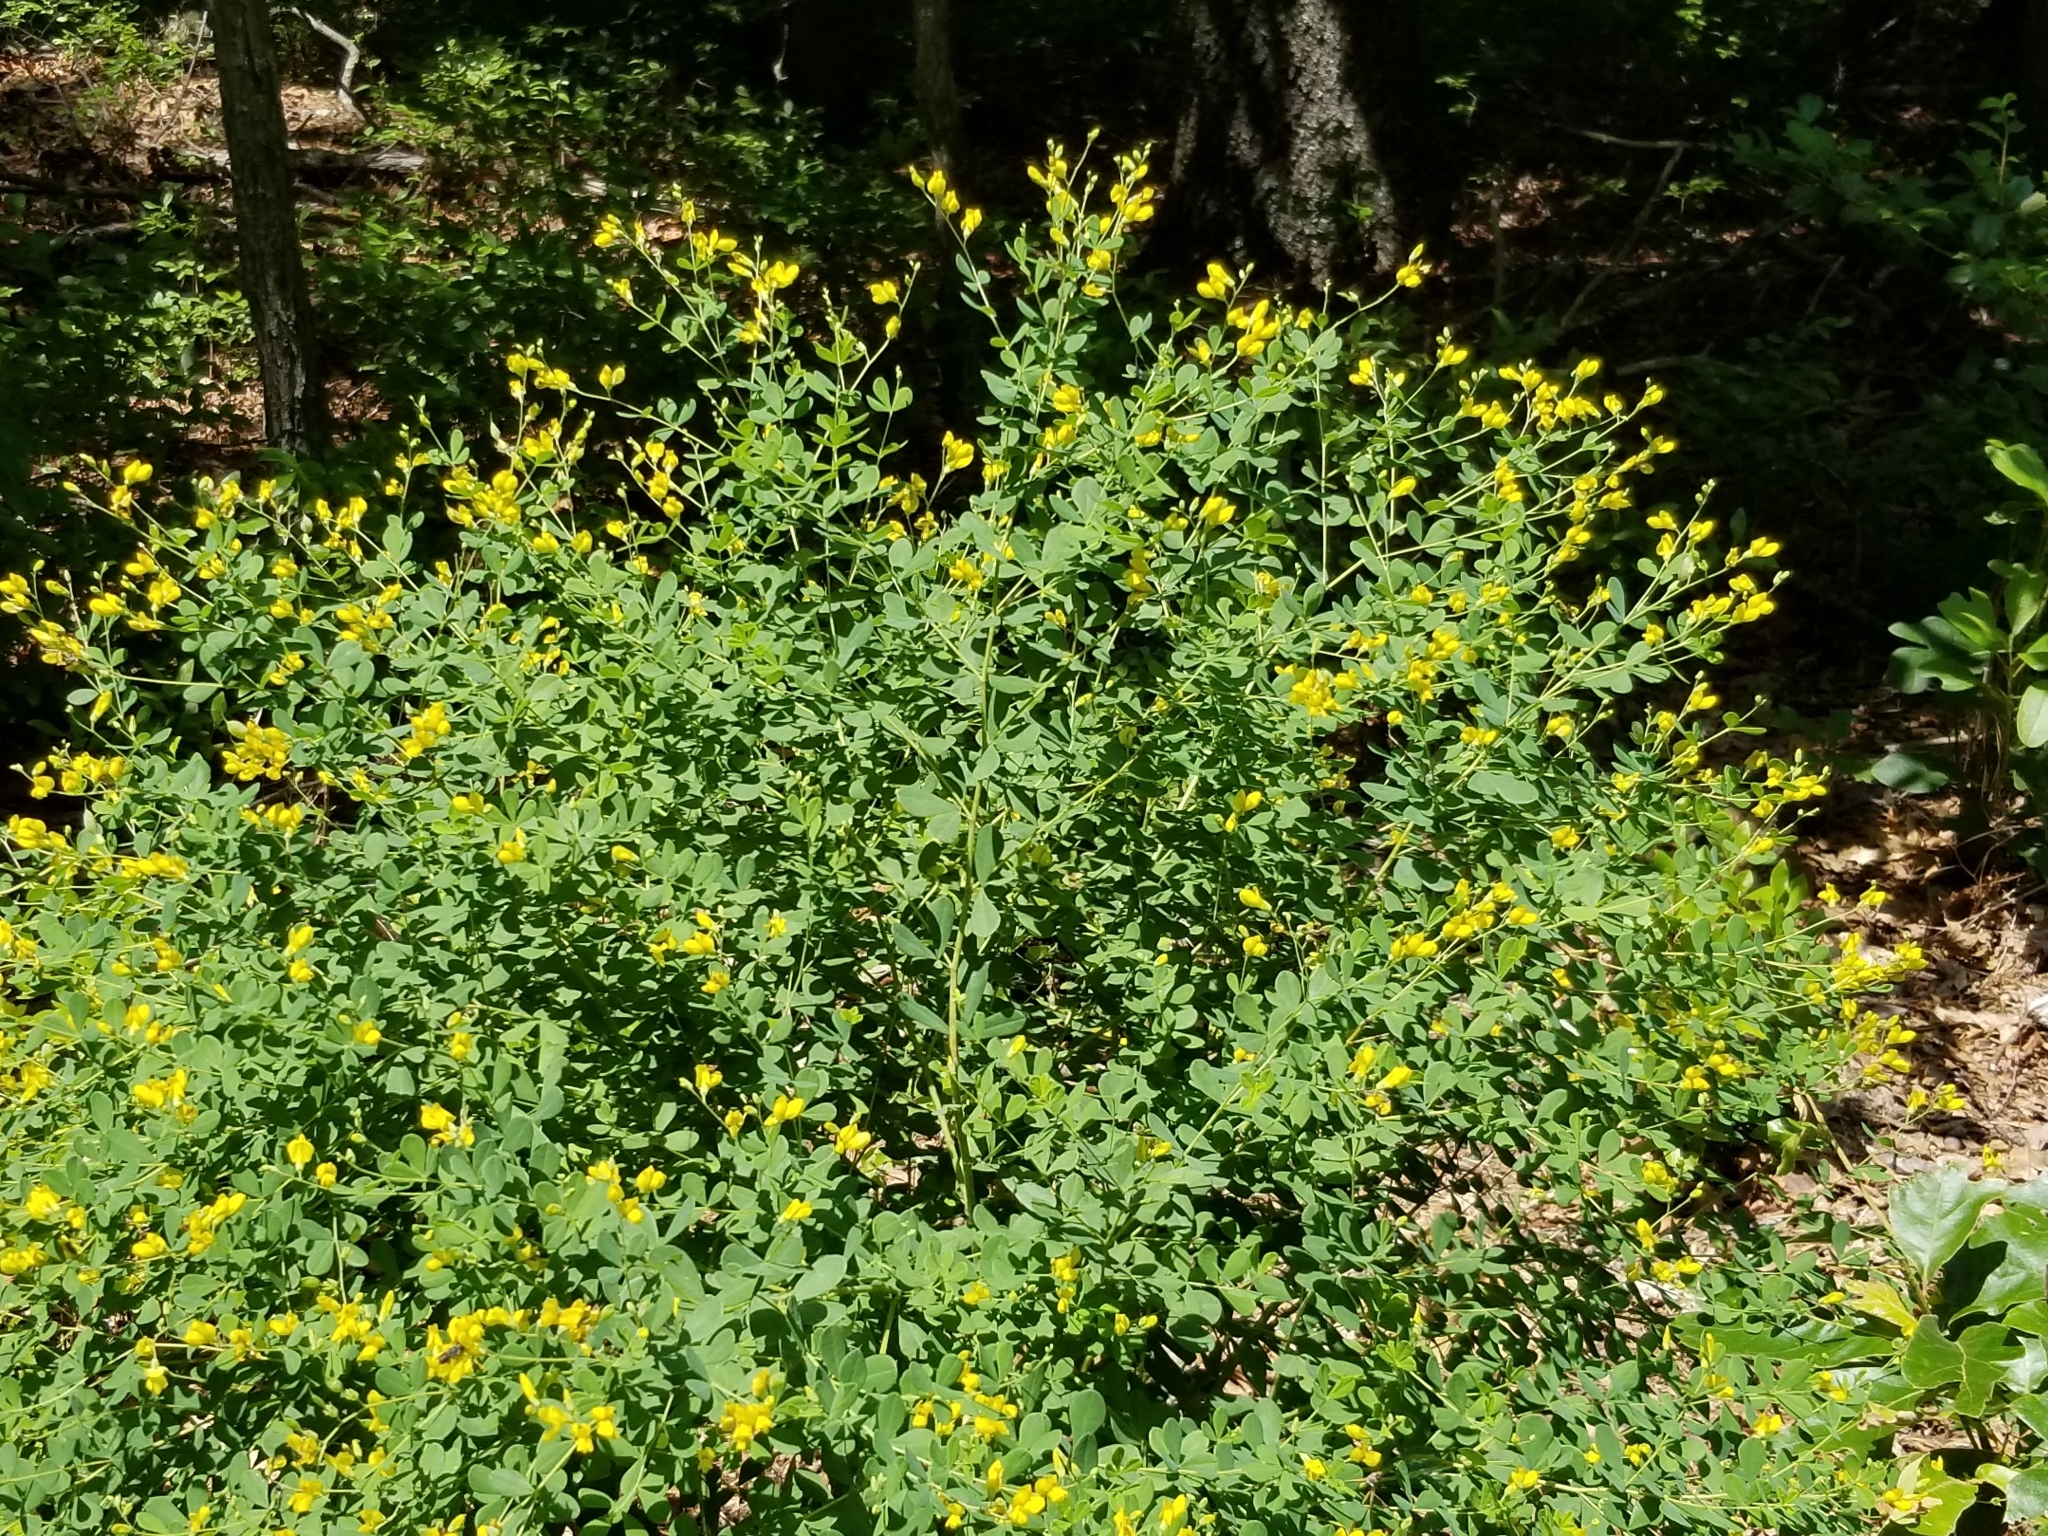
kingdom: Plantae
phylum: Tracheophyta
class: Magnoliopsida
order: Fabales
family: Fabaceae
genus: Baptisia
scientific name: Baptisia tinctoria
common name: Wild indigo
